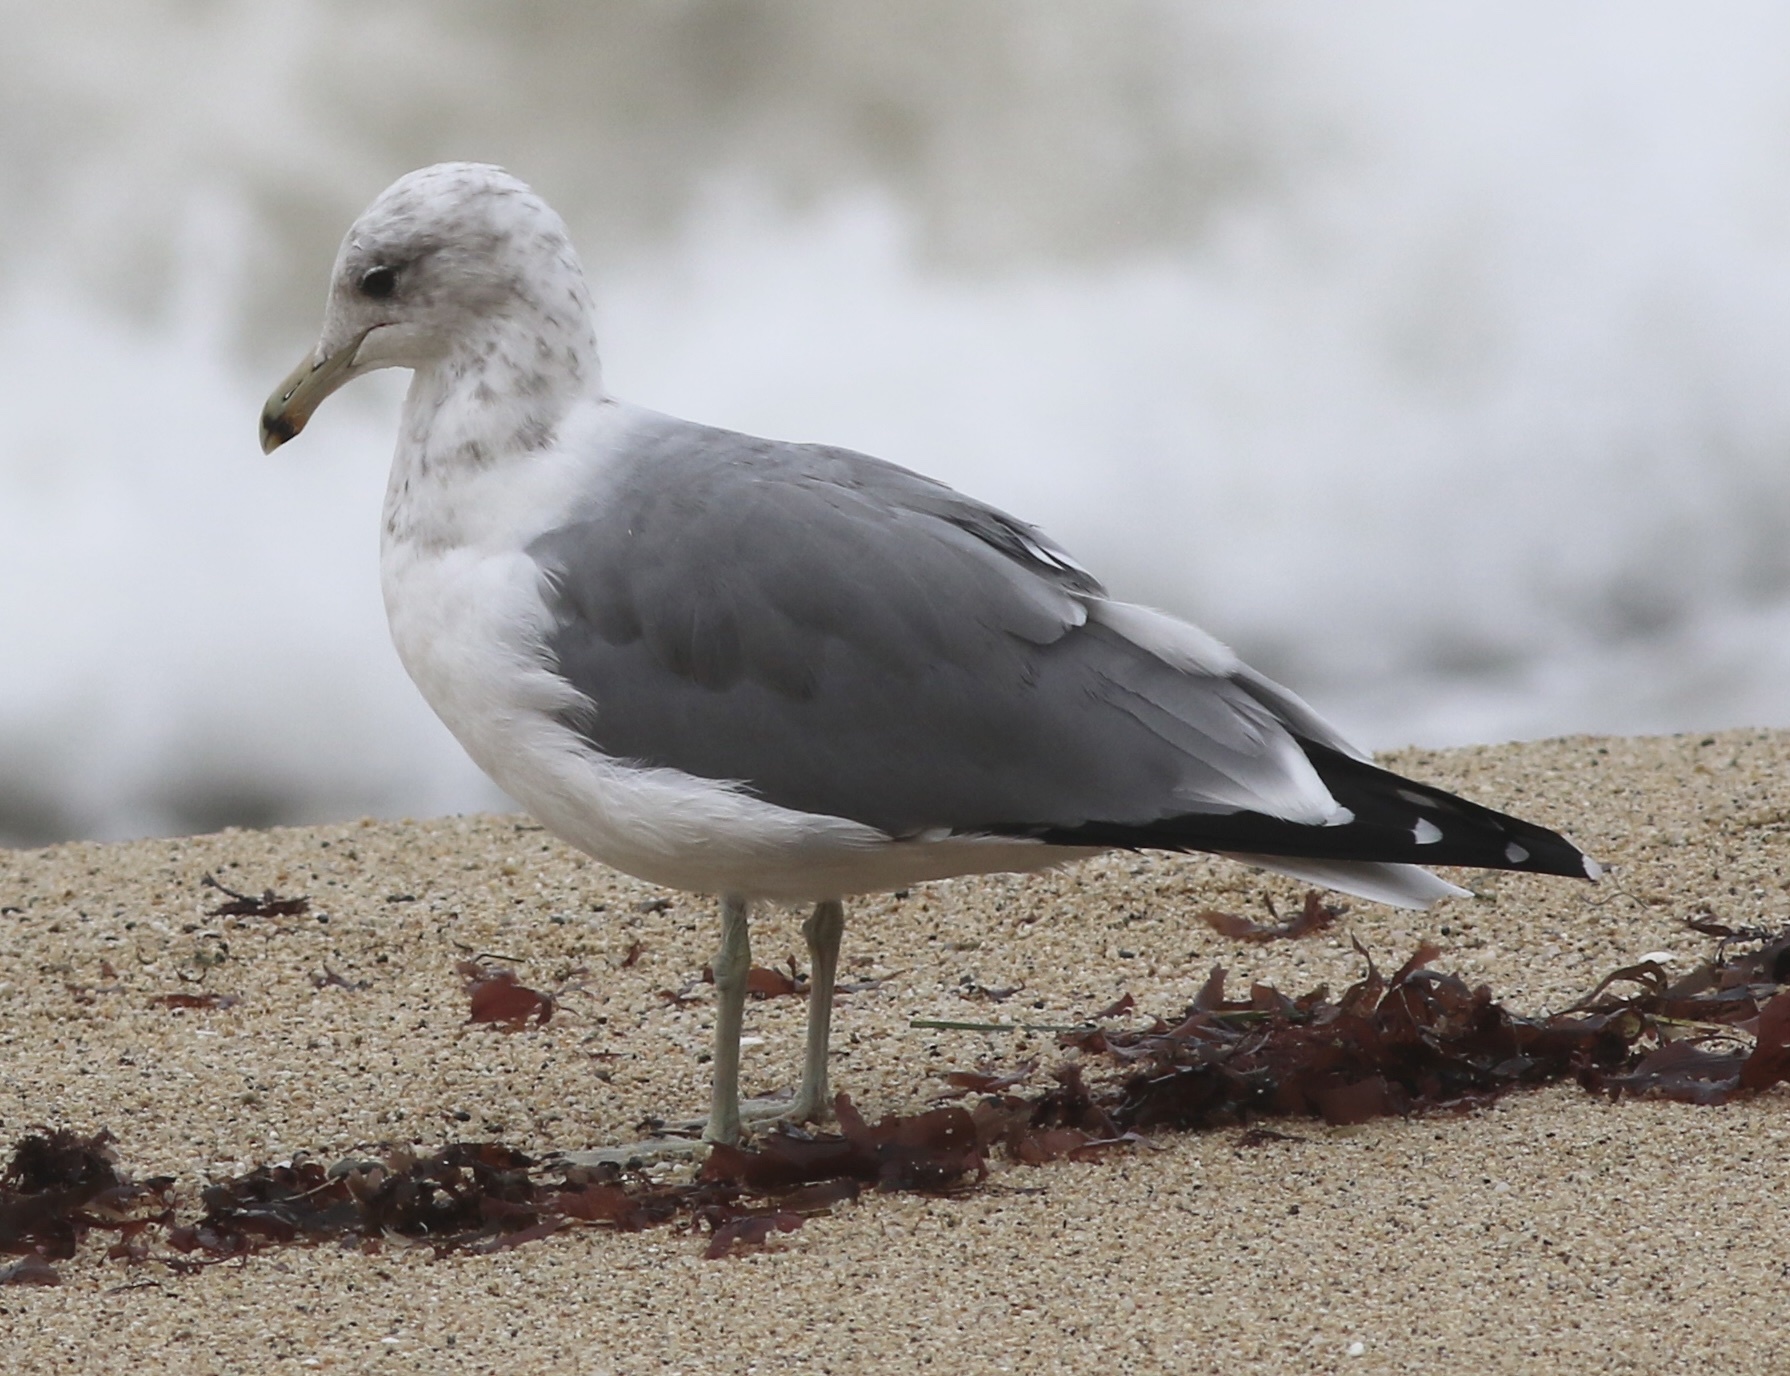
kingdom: Animalia
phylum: Chordata
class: Aves
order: Charadriiformes
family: Laridae
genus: Larus
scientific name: Larus californicus
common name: California gull
